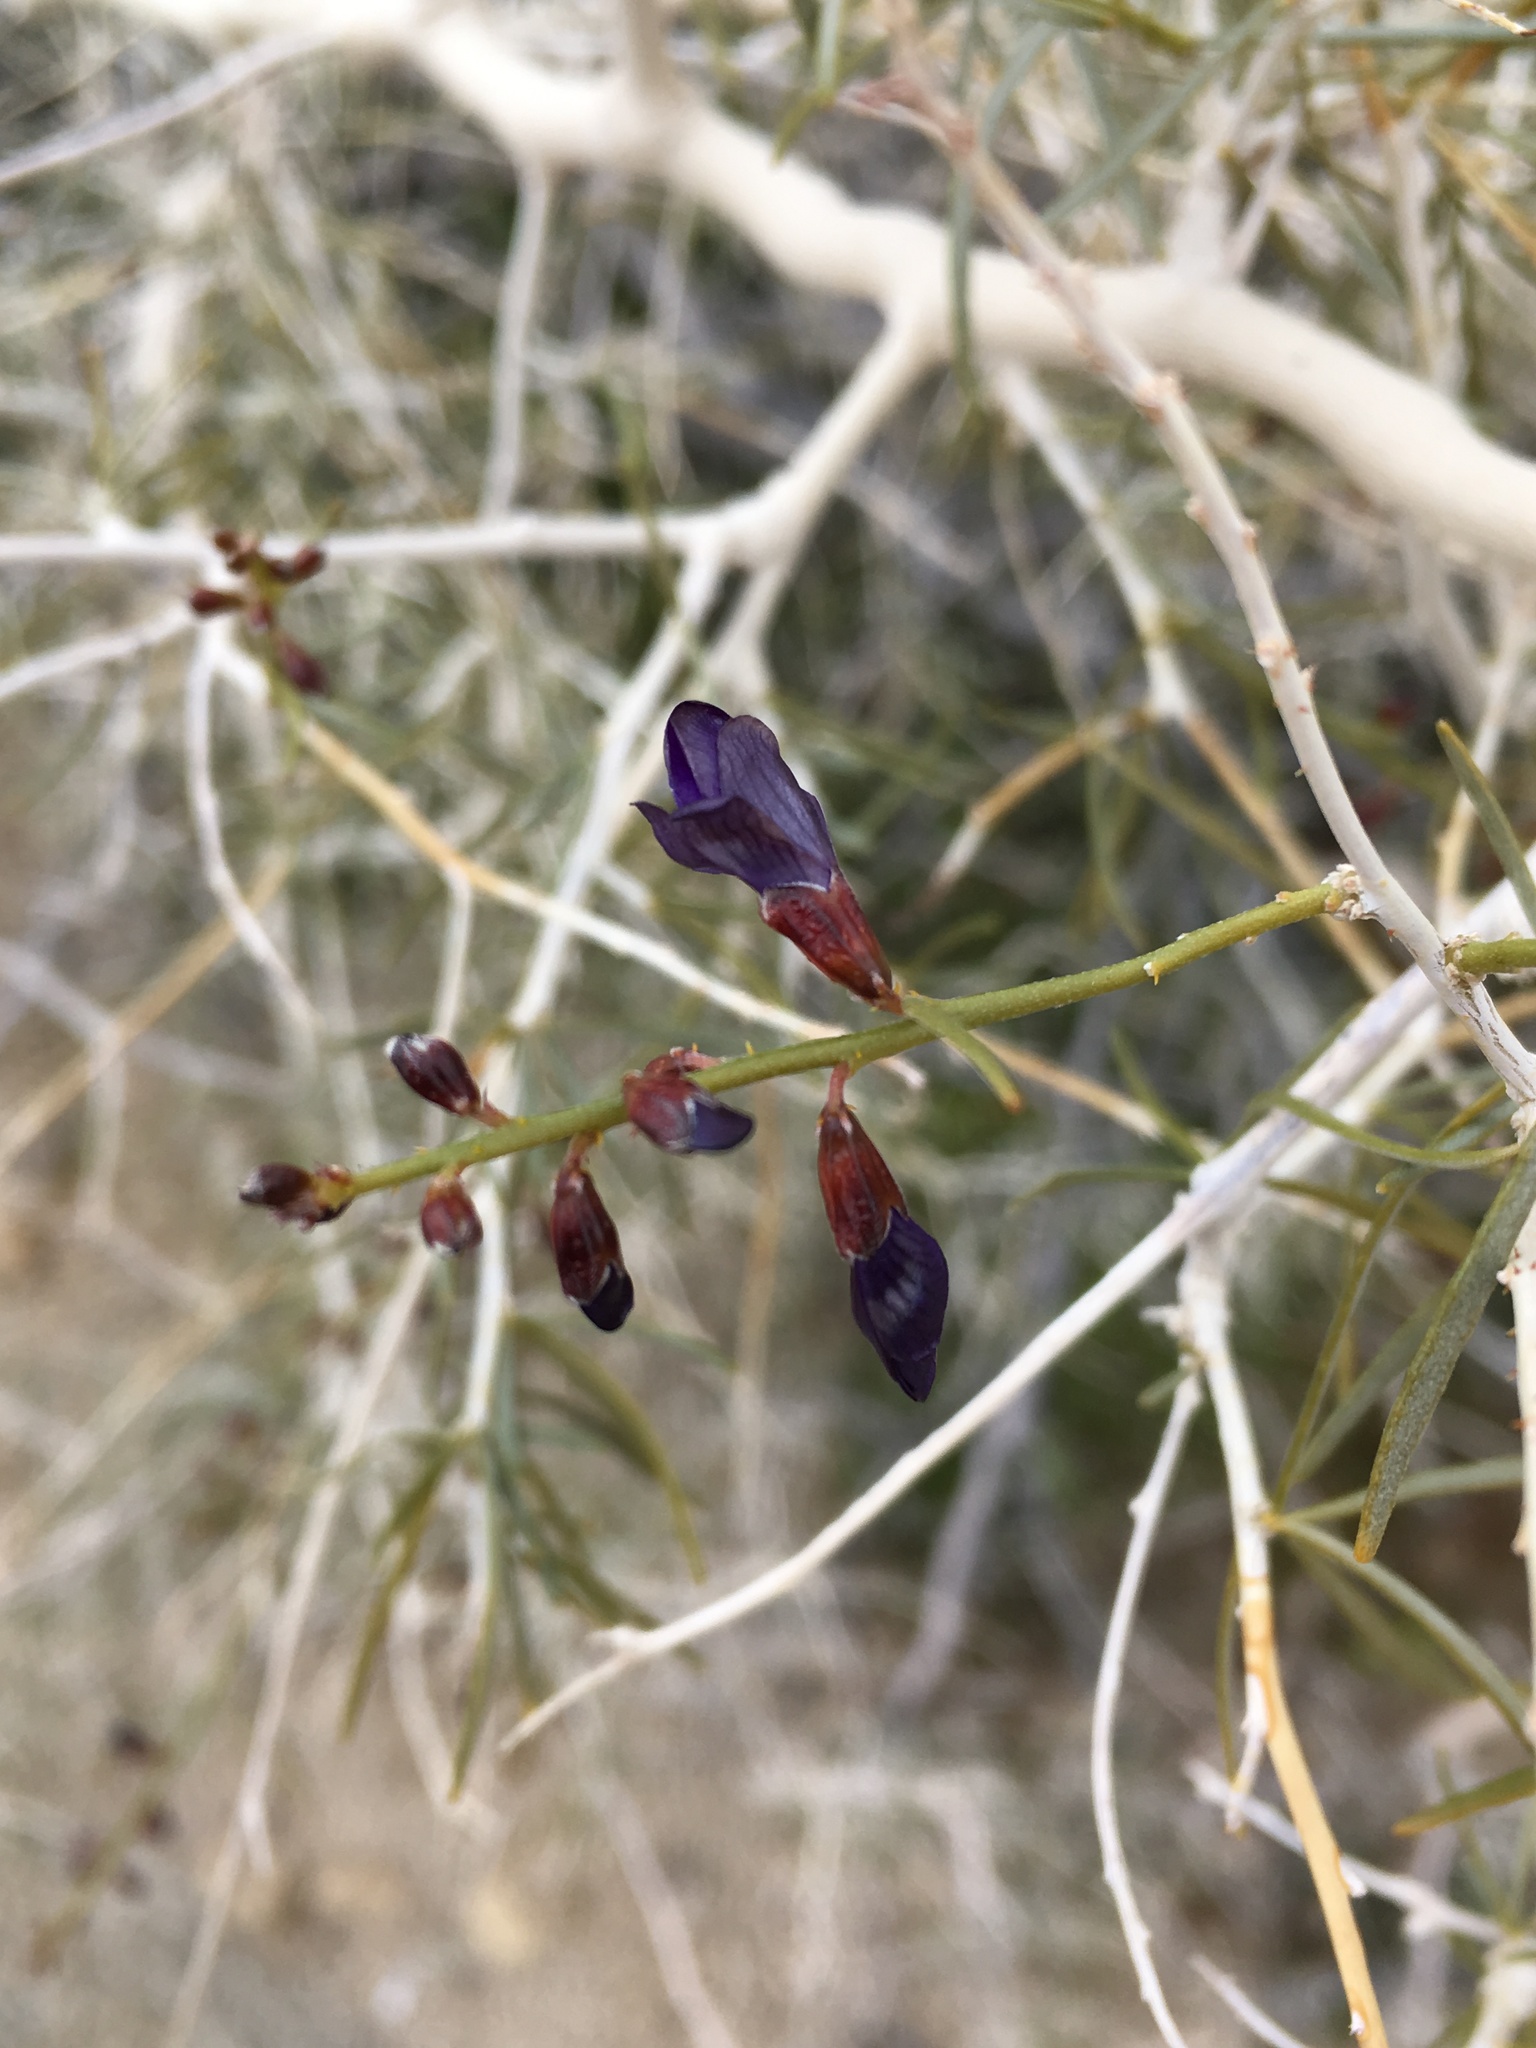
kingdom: Plantae
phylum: Tracheophyta
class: Magnoliopsida
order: Fabales
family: Fabaceae
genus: Psorothamnus
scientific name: Psorothamnus schottii
